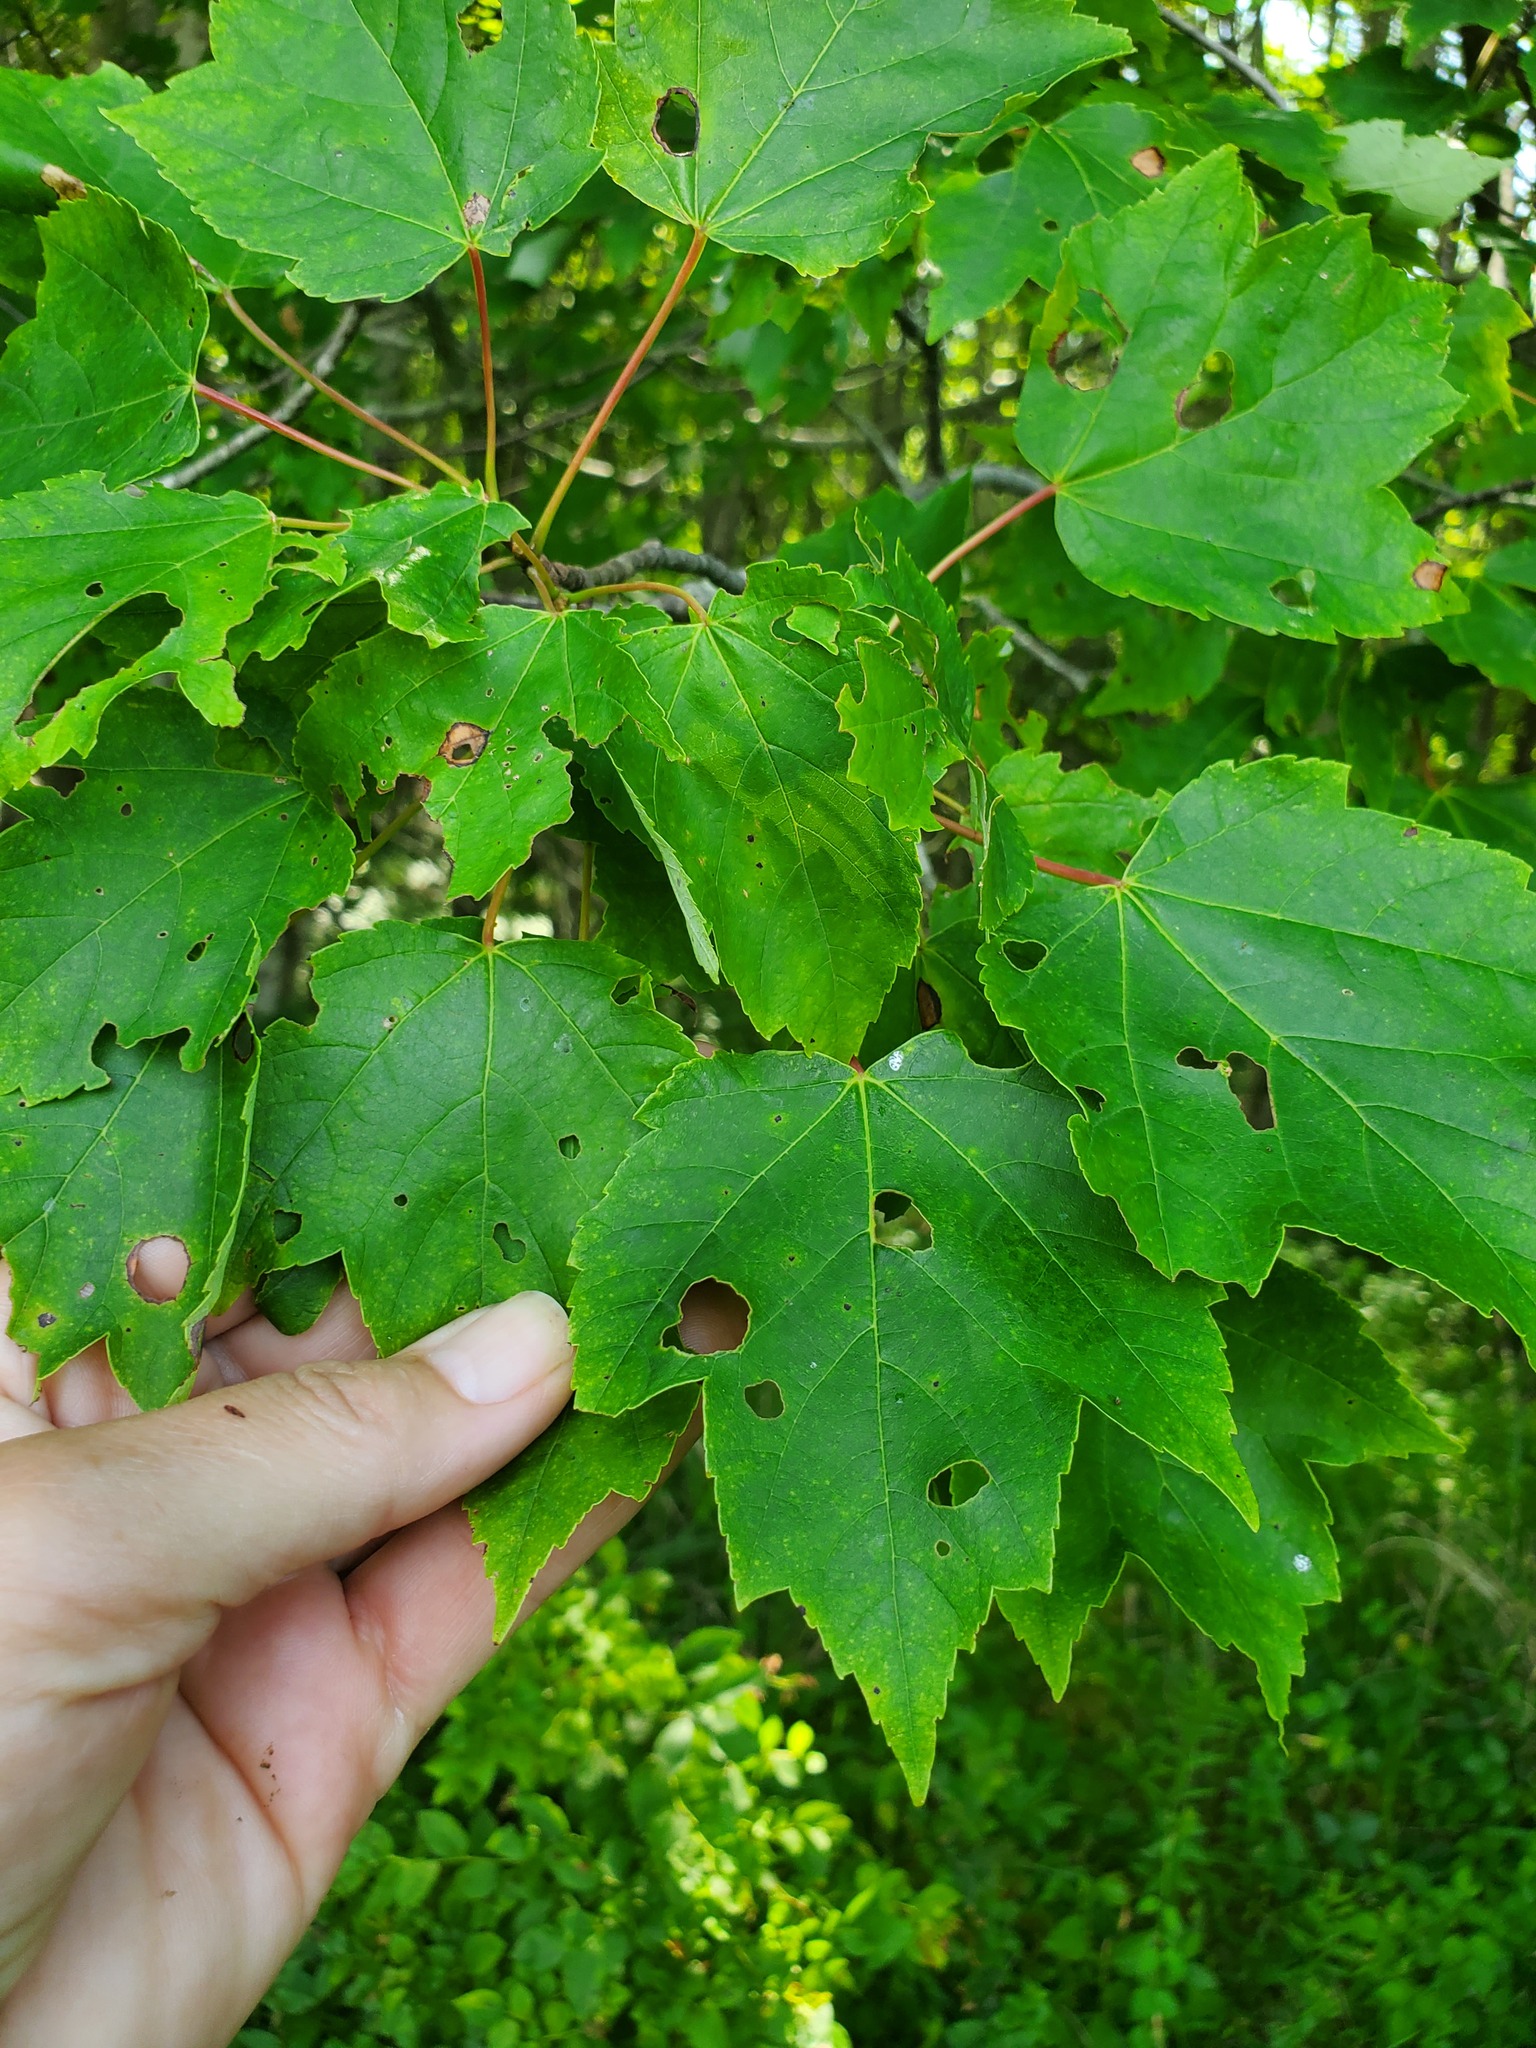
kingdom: Plantae
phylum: Tracheophyta
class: Magnoliopsida
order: Sapindales
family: Sapindaceae
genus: Acer
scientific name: Acer rubrum
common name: Red maple
